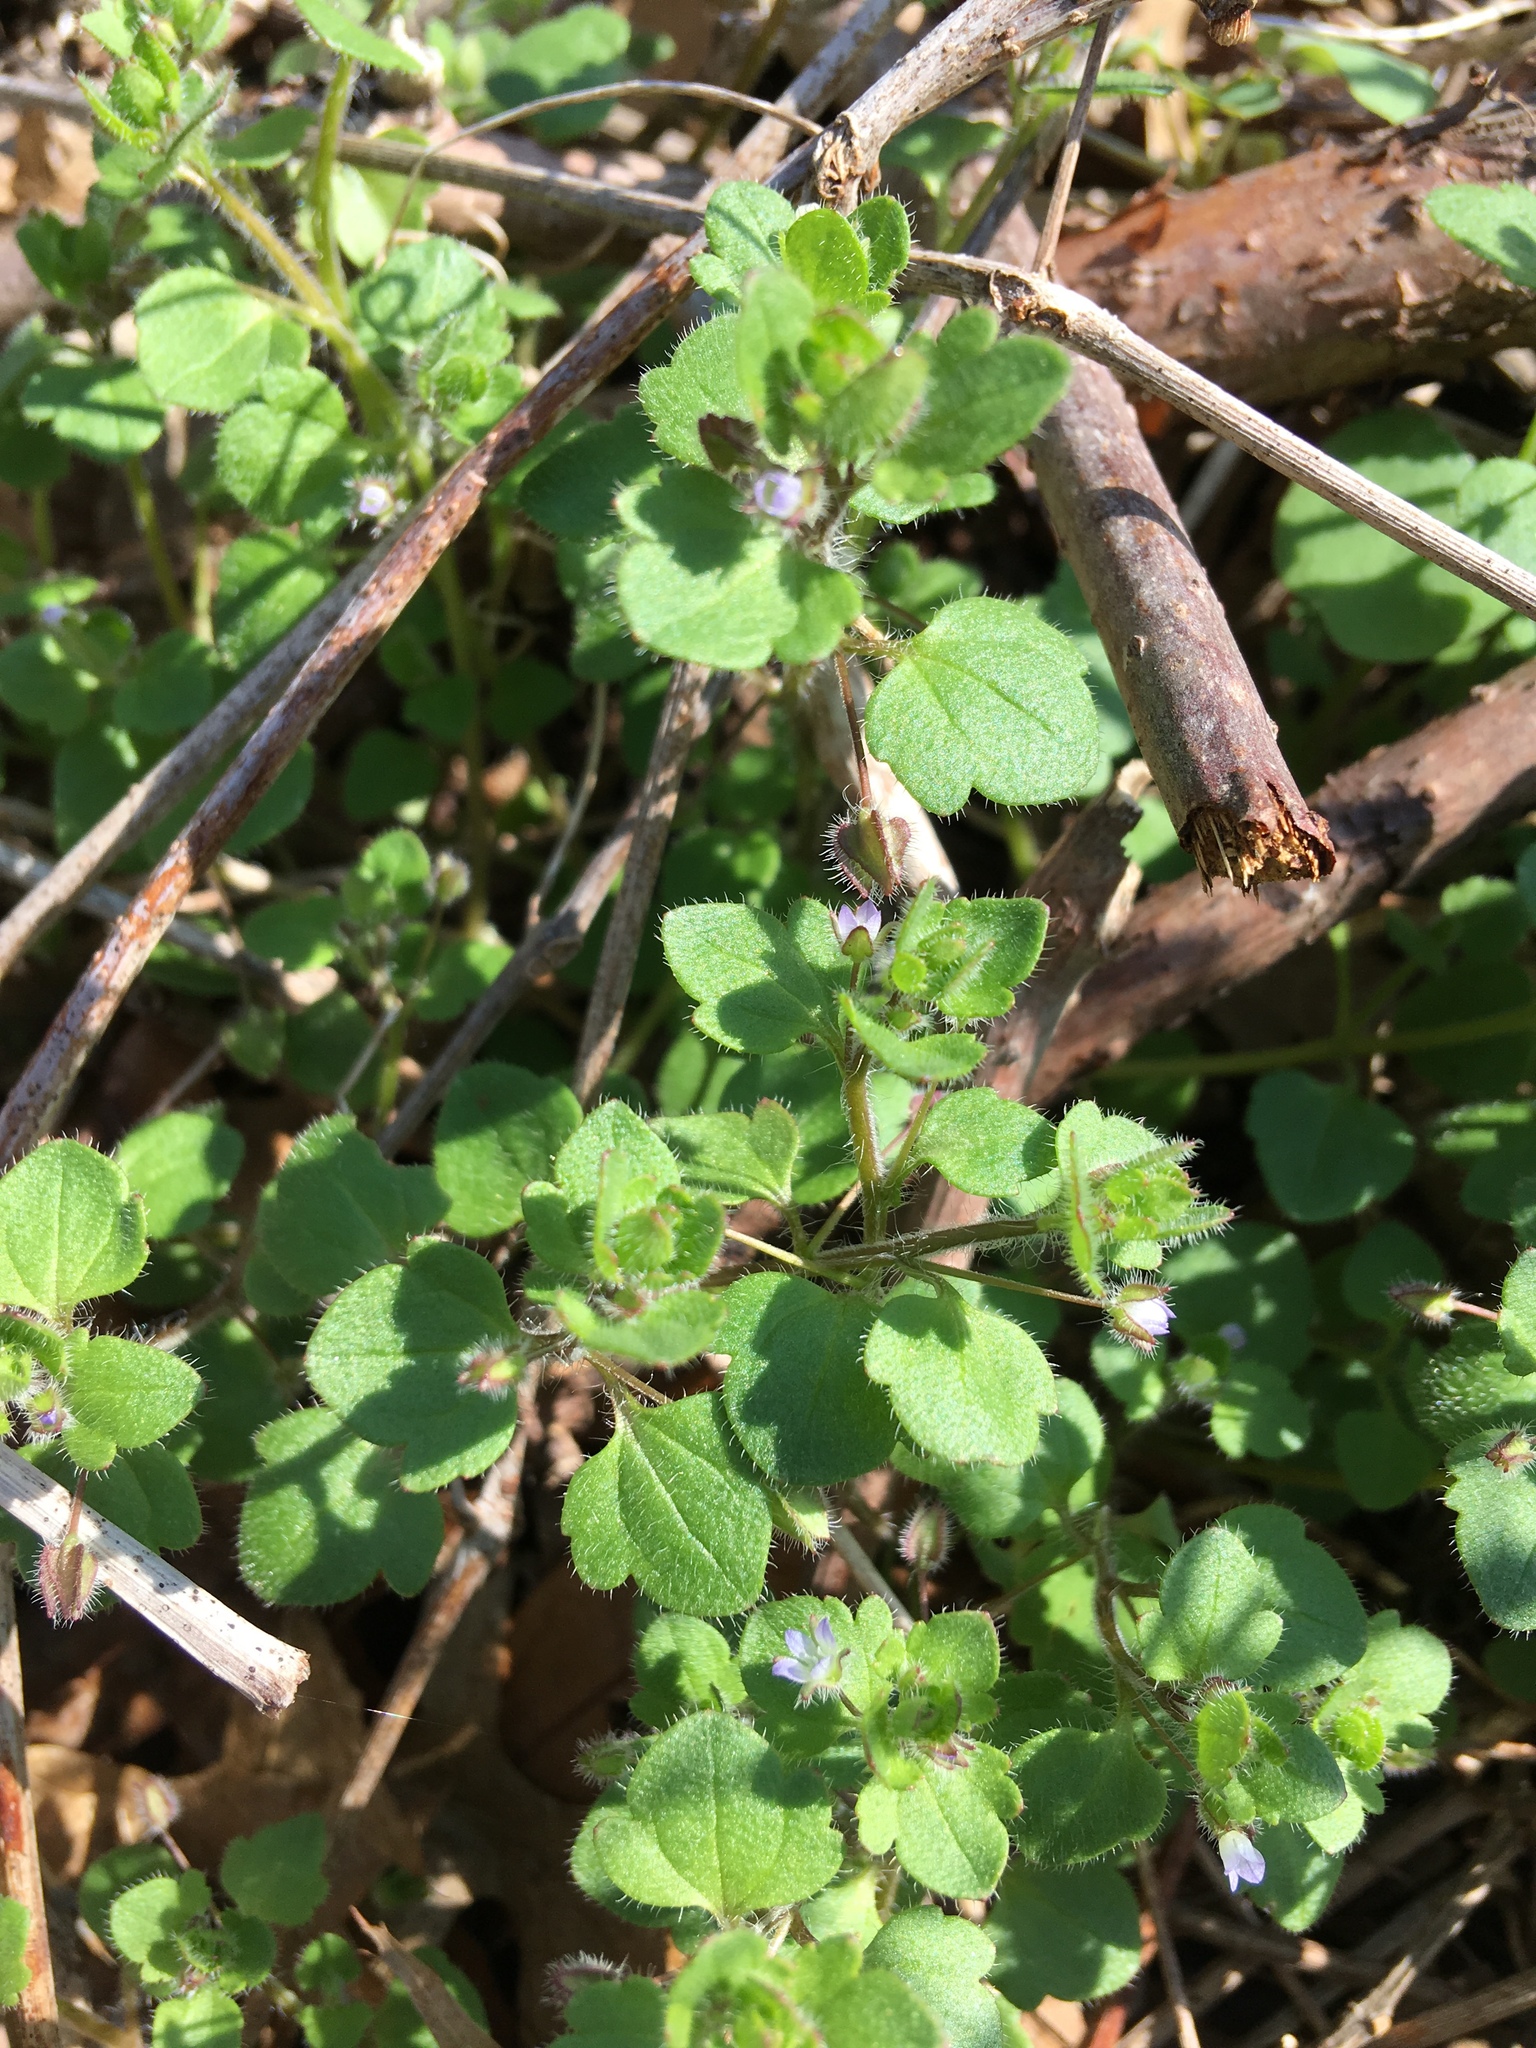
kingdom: Plantae
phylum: Tracheophyta
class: Magnoliopsida
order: Lamiales
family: Plantaginaceae
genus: Veronica
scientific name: Veronica hederifolia
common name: Ivy-leaved speedwell
